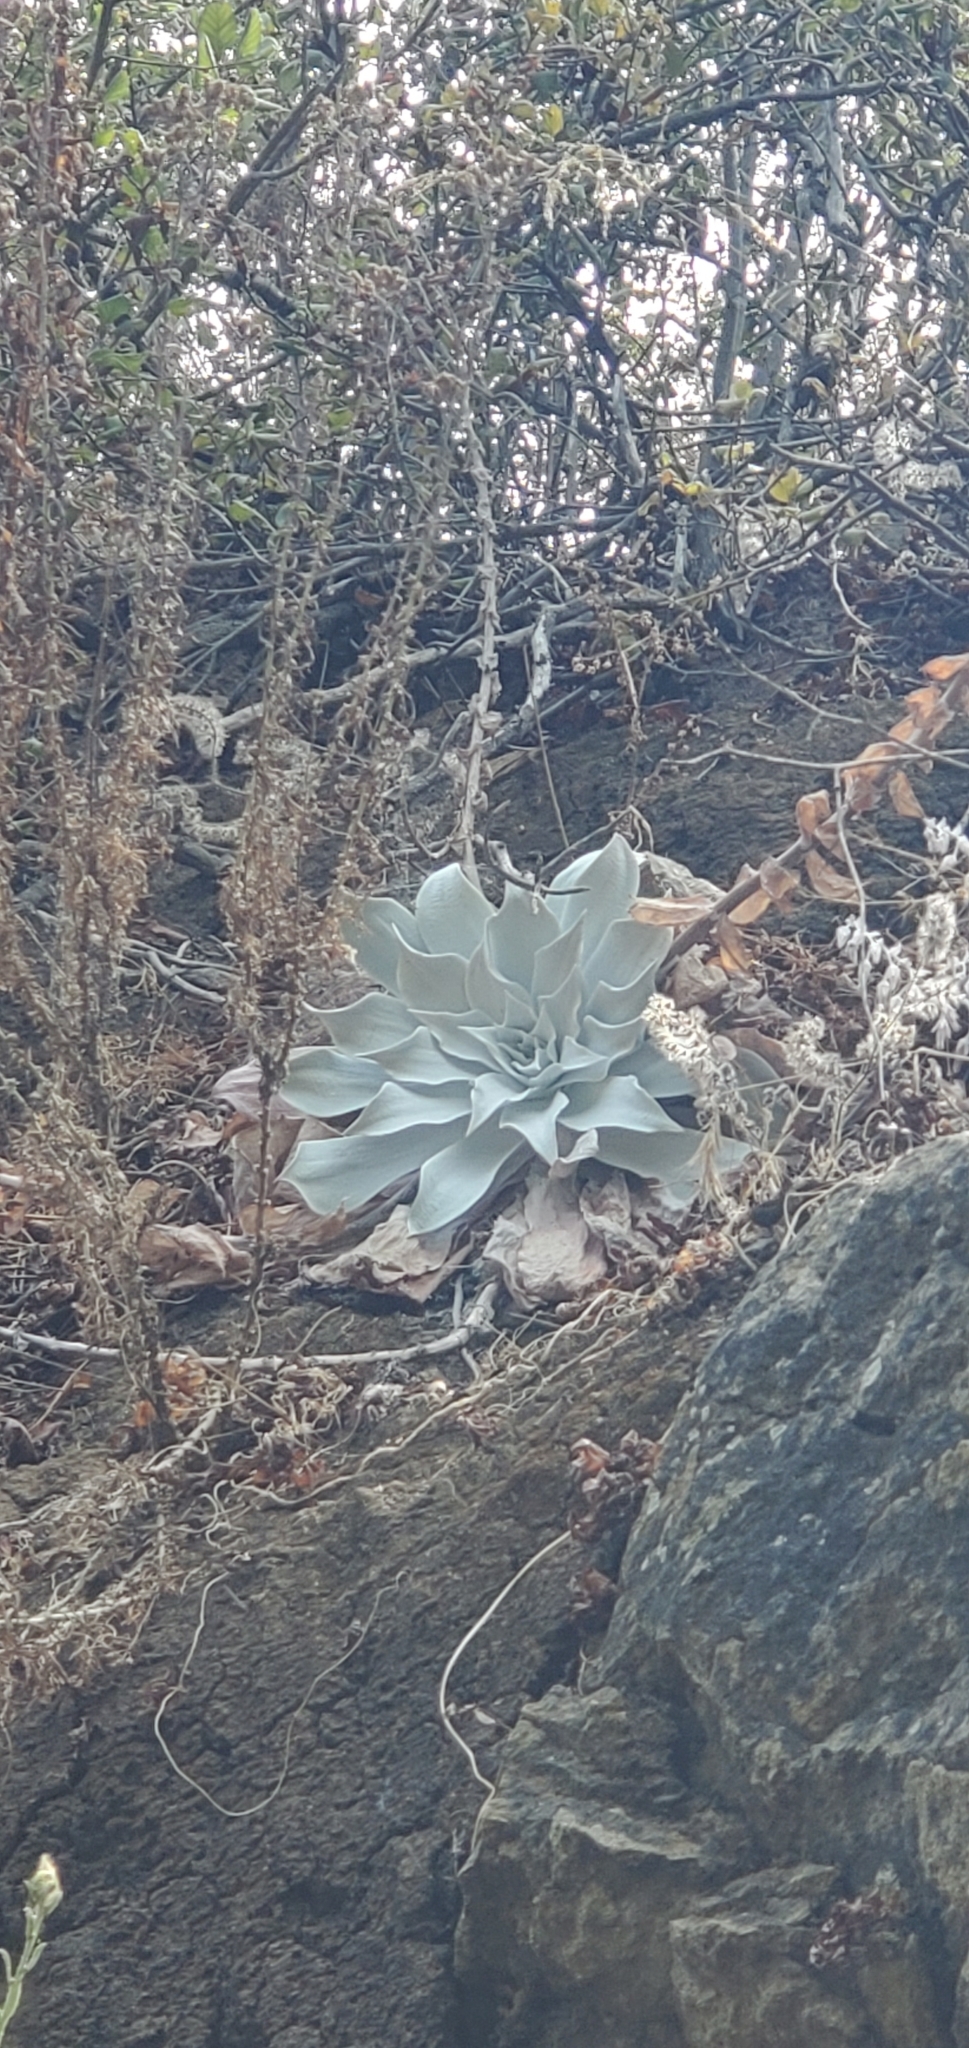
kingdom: Plantae
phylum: Tracheophyta
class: Magnoliopsida
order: Saxifragales
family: Crassulaceae
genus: Dudleya
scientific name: Dudleya pulverulenta
